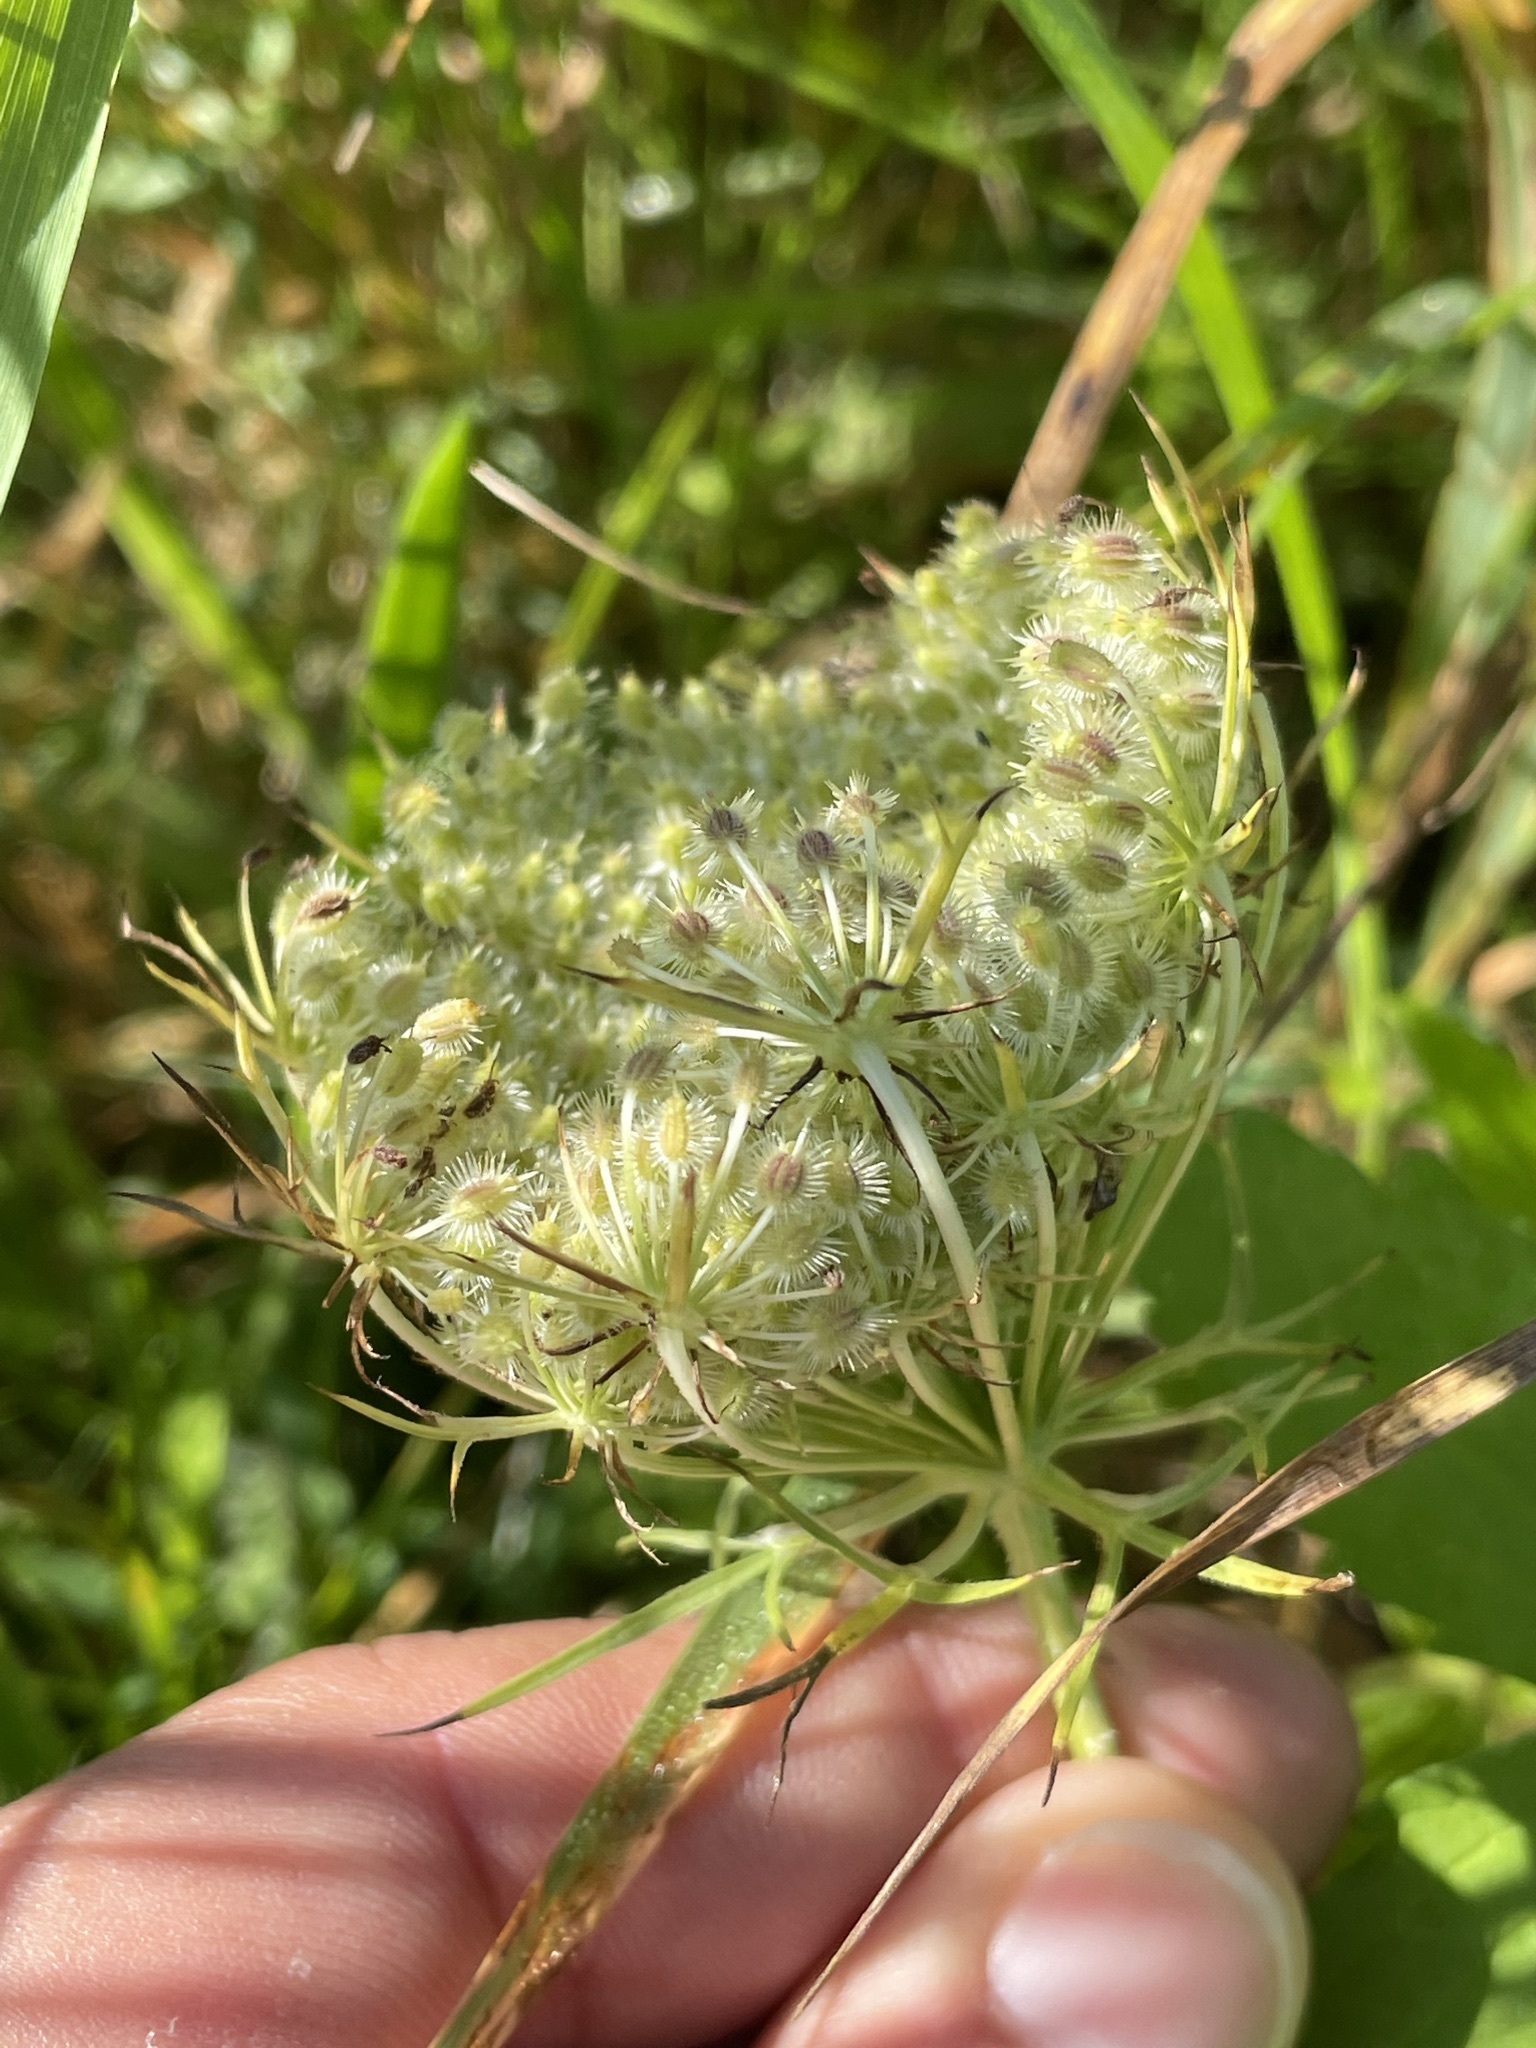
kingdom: Plantae
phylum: Tracheophyta
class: Magnoliopsida
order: Apiales
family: Apiaceae
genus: Daucus
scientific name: Daucus carota
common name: Wild carrot
